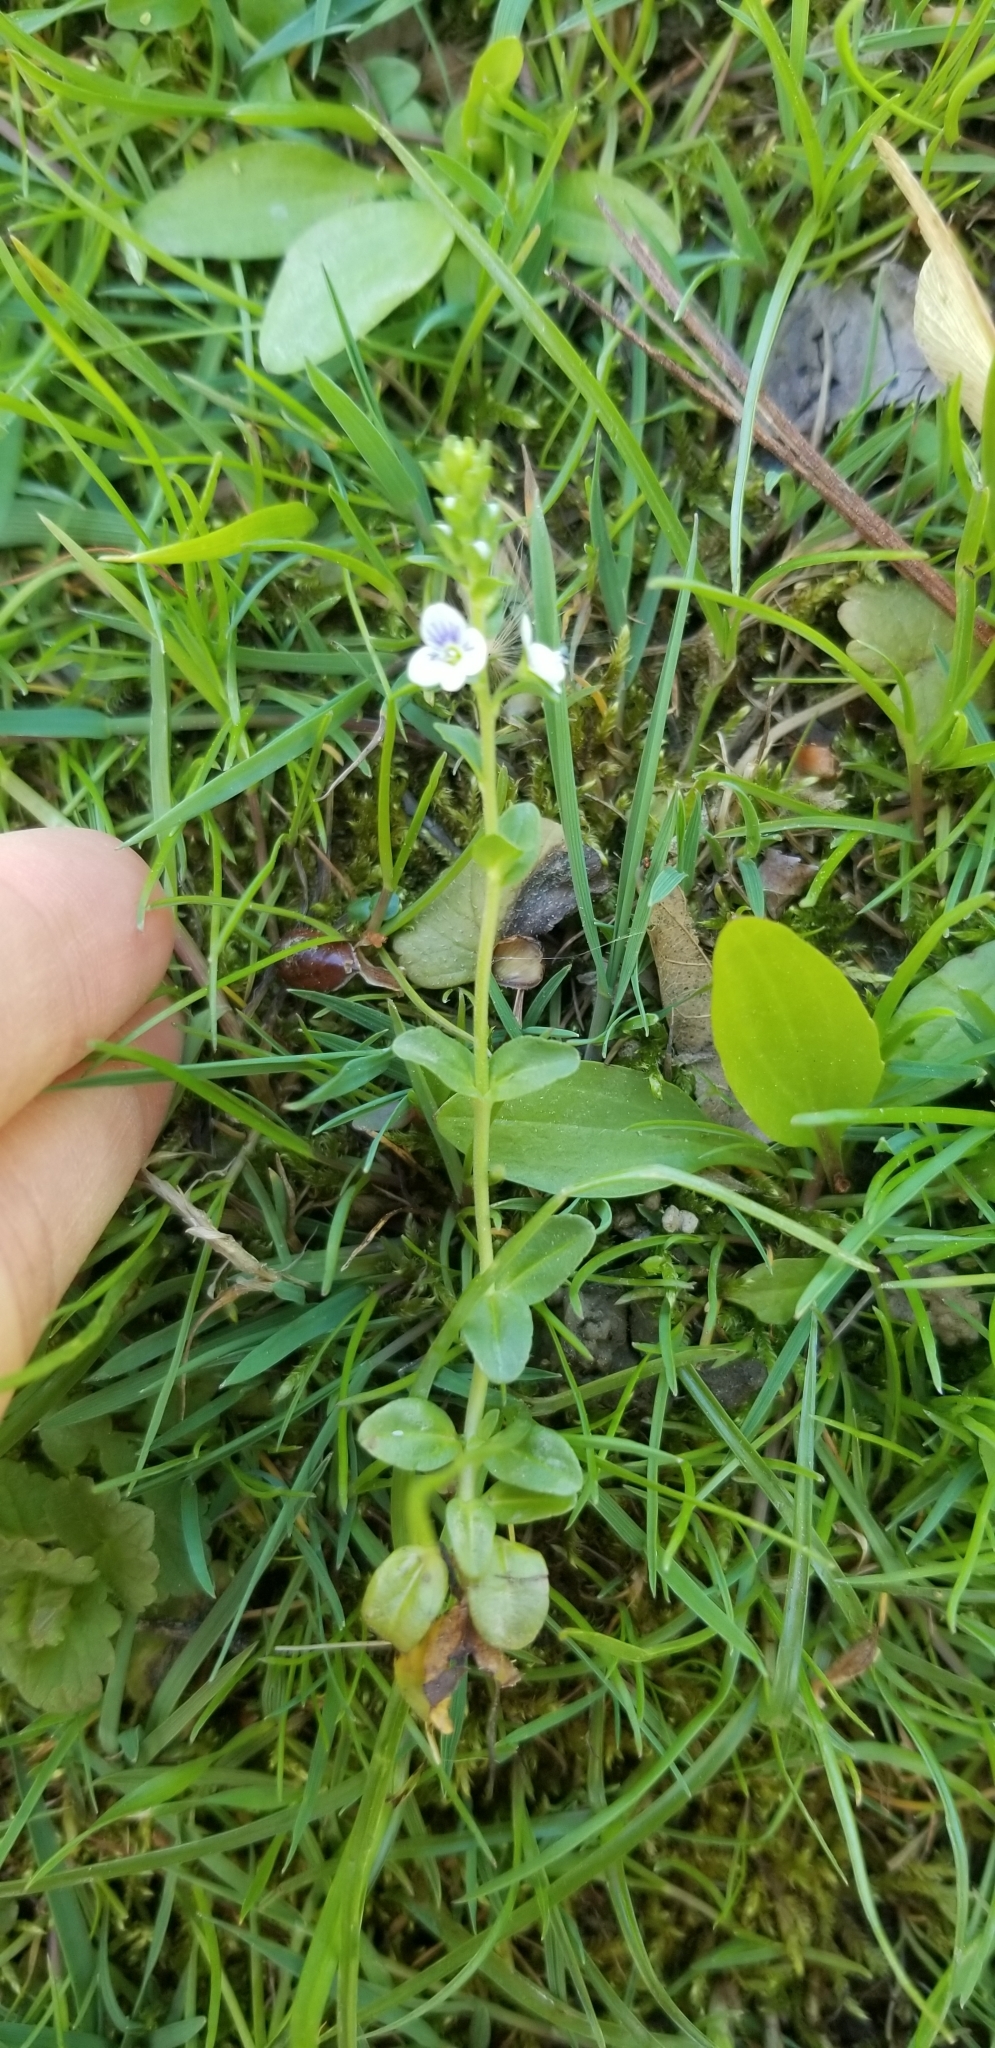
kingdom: Plantae
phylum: Tracheophyta
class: Magnoliopsida
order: Lamiales
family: Plantaginaceae
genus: Veronica
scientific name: Veronica serpyllifolia
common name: Thyme-leaved speedwell
